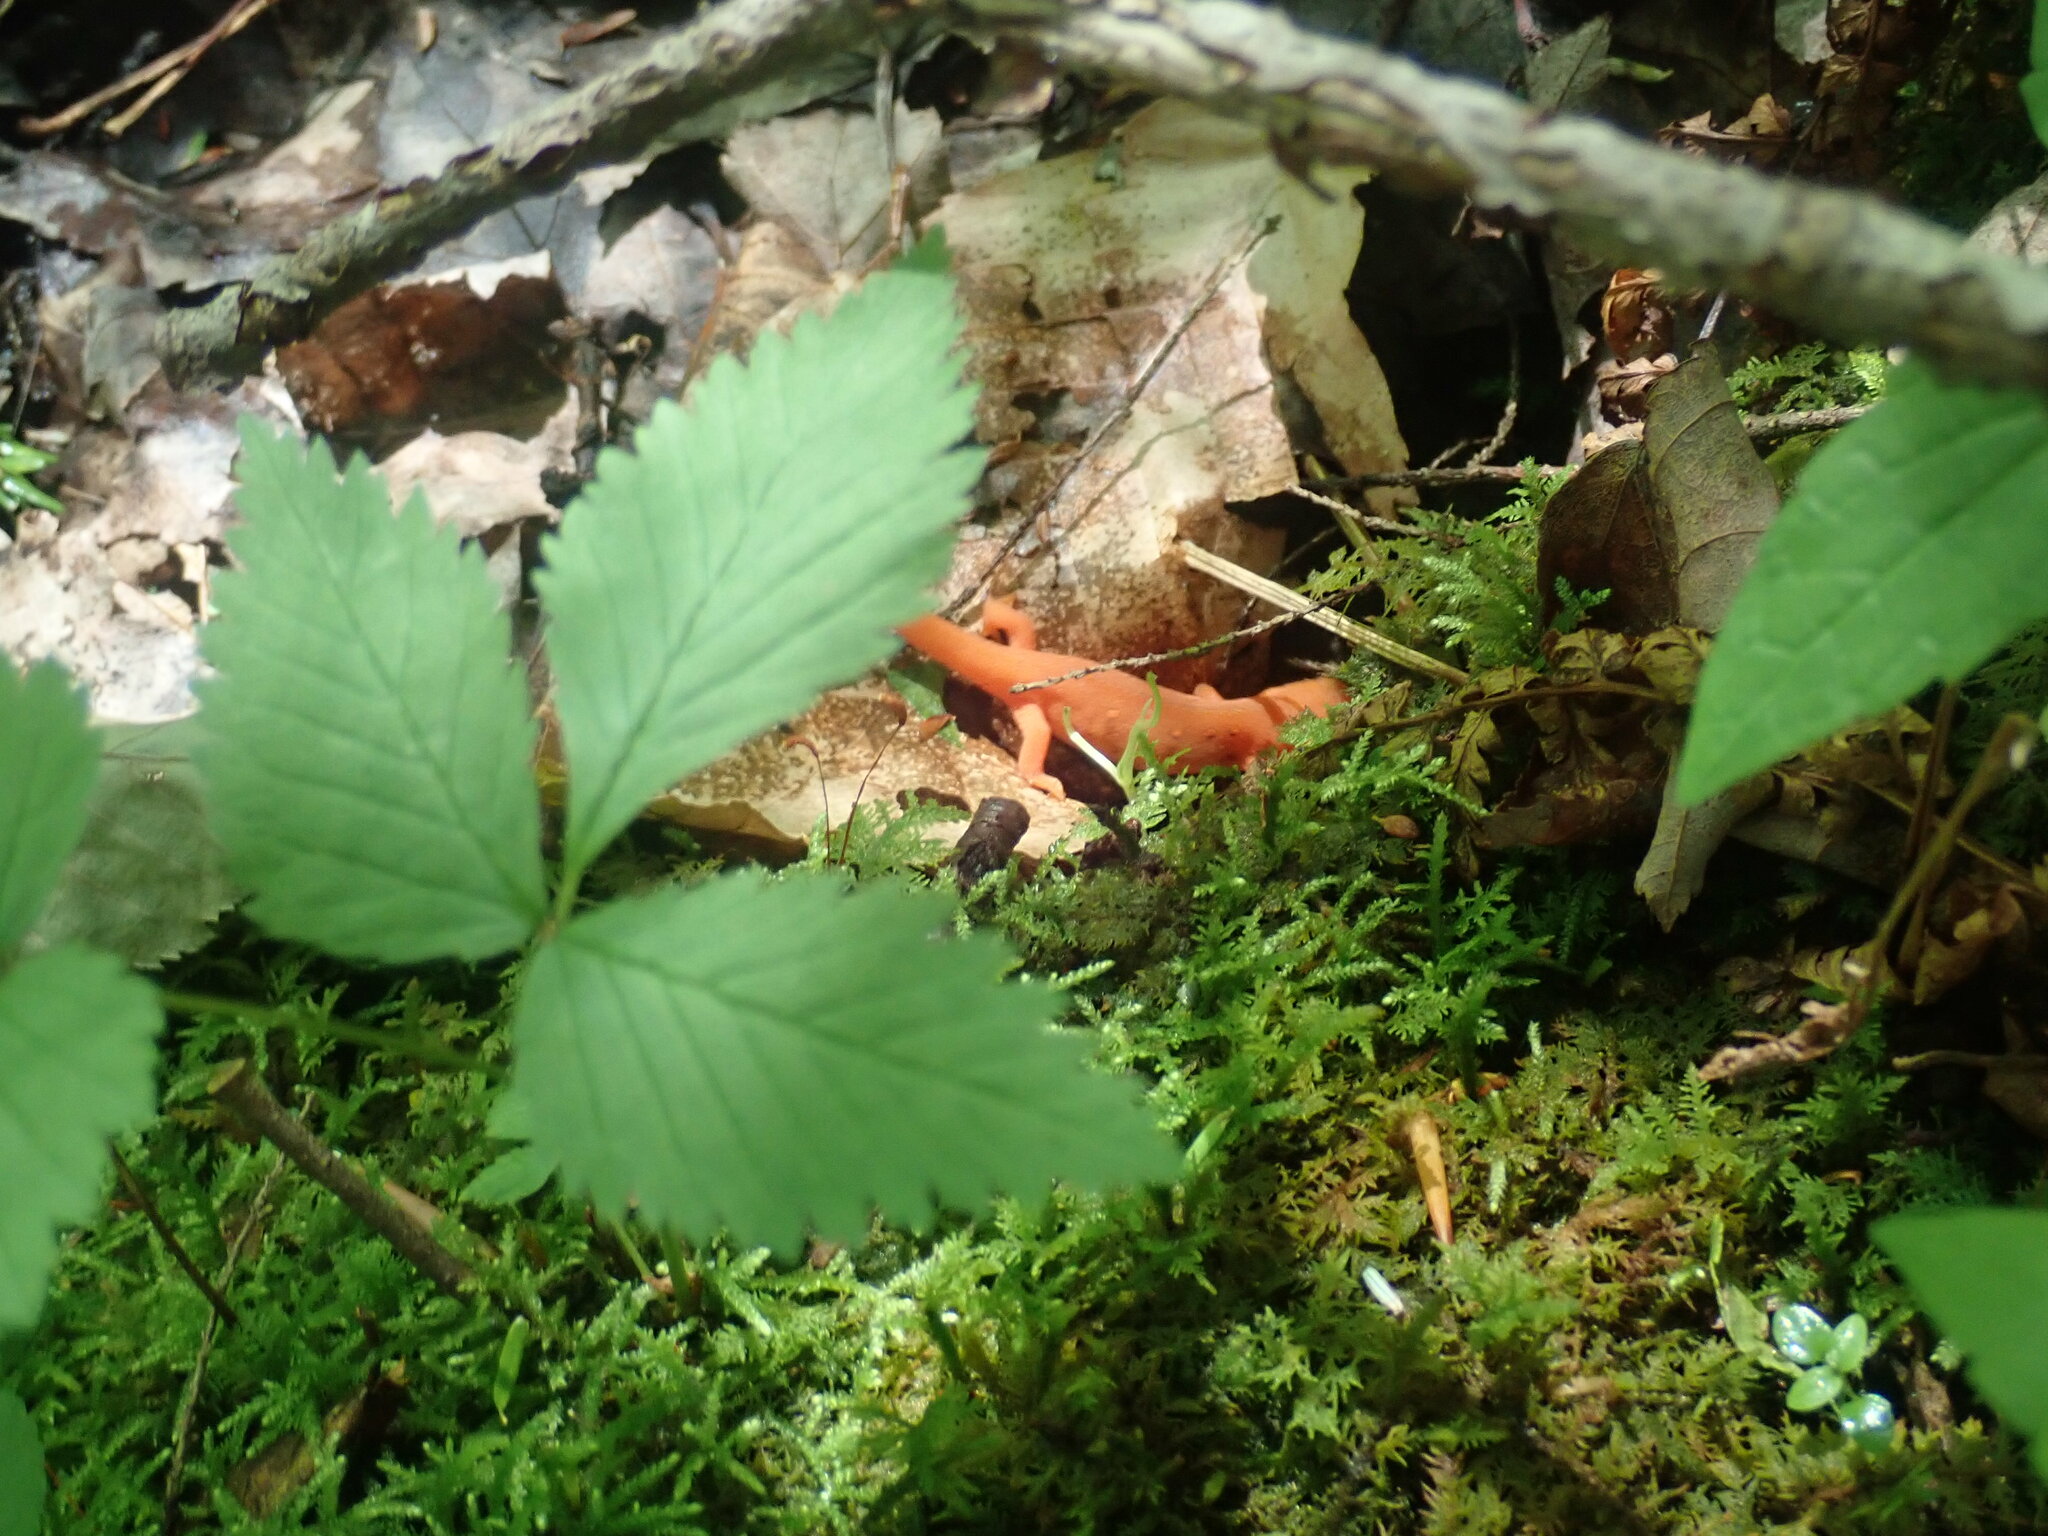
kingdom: Animalia
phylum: Chordata
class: Amphibia
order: Caudata
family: Salamandridae
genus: Notophthalmus
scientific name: Notophthalmus viridescens
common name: Eastern newt
